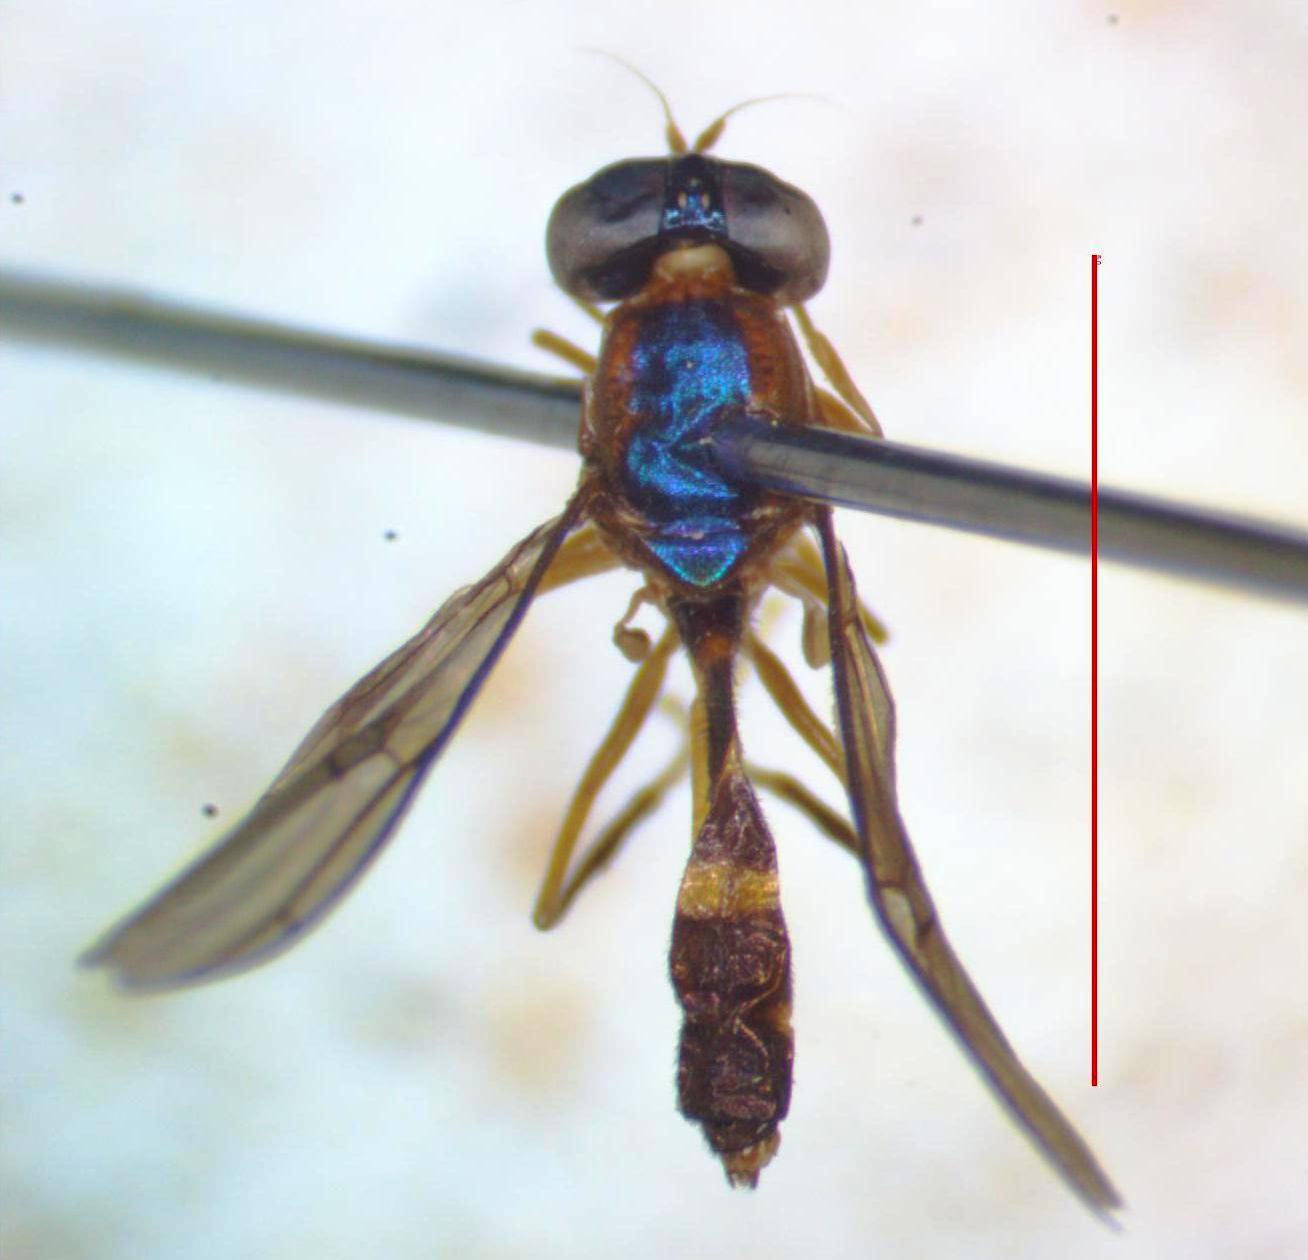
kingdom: Animalia
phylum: Arthropoda
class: Insecta
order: Diptera
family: Stratiomyidae
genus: Merosargus
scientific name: Merosargus panamensis
